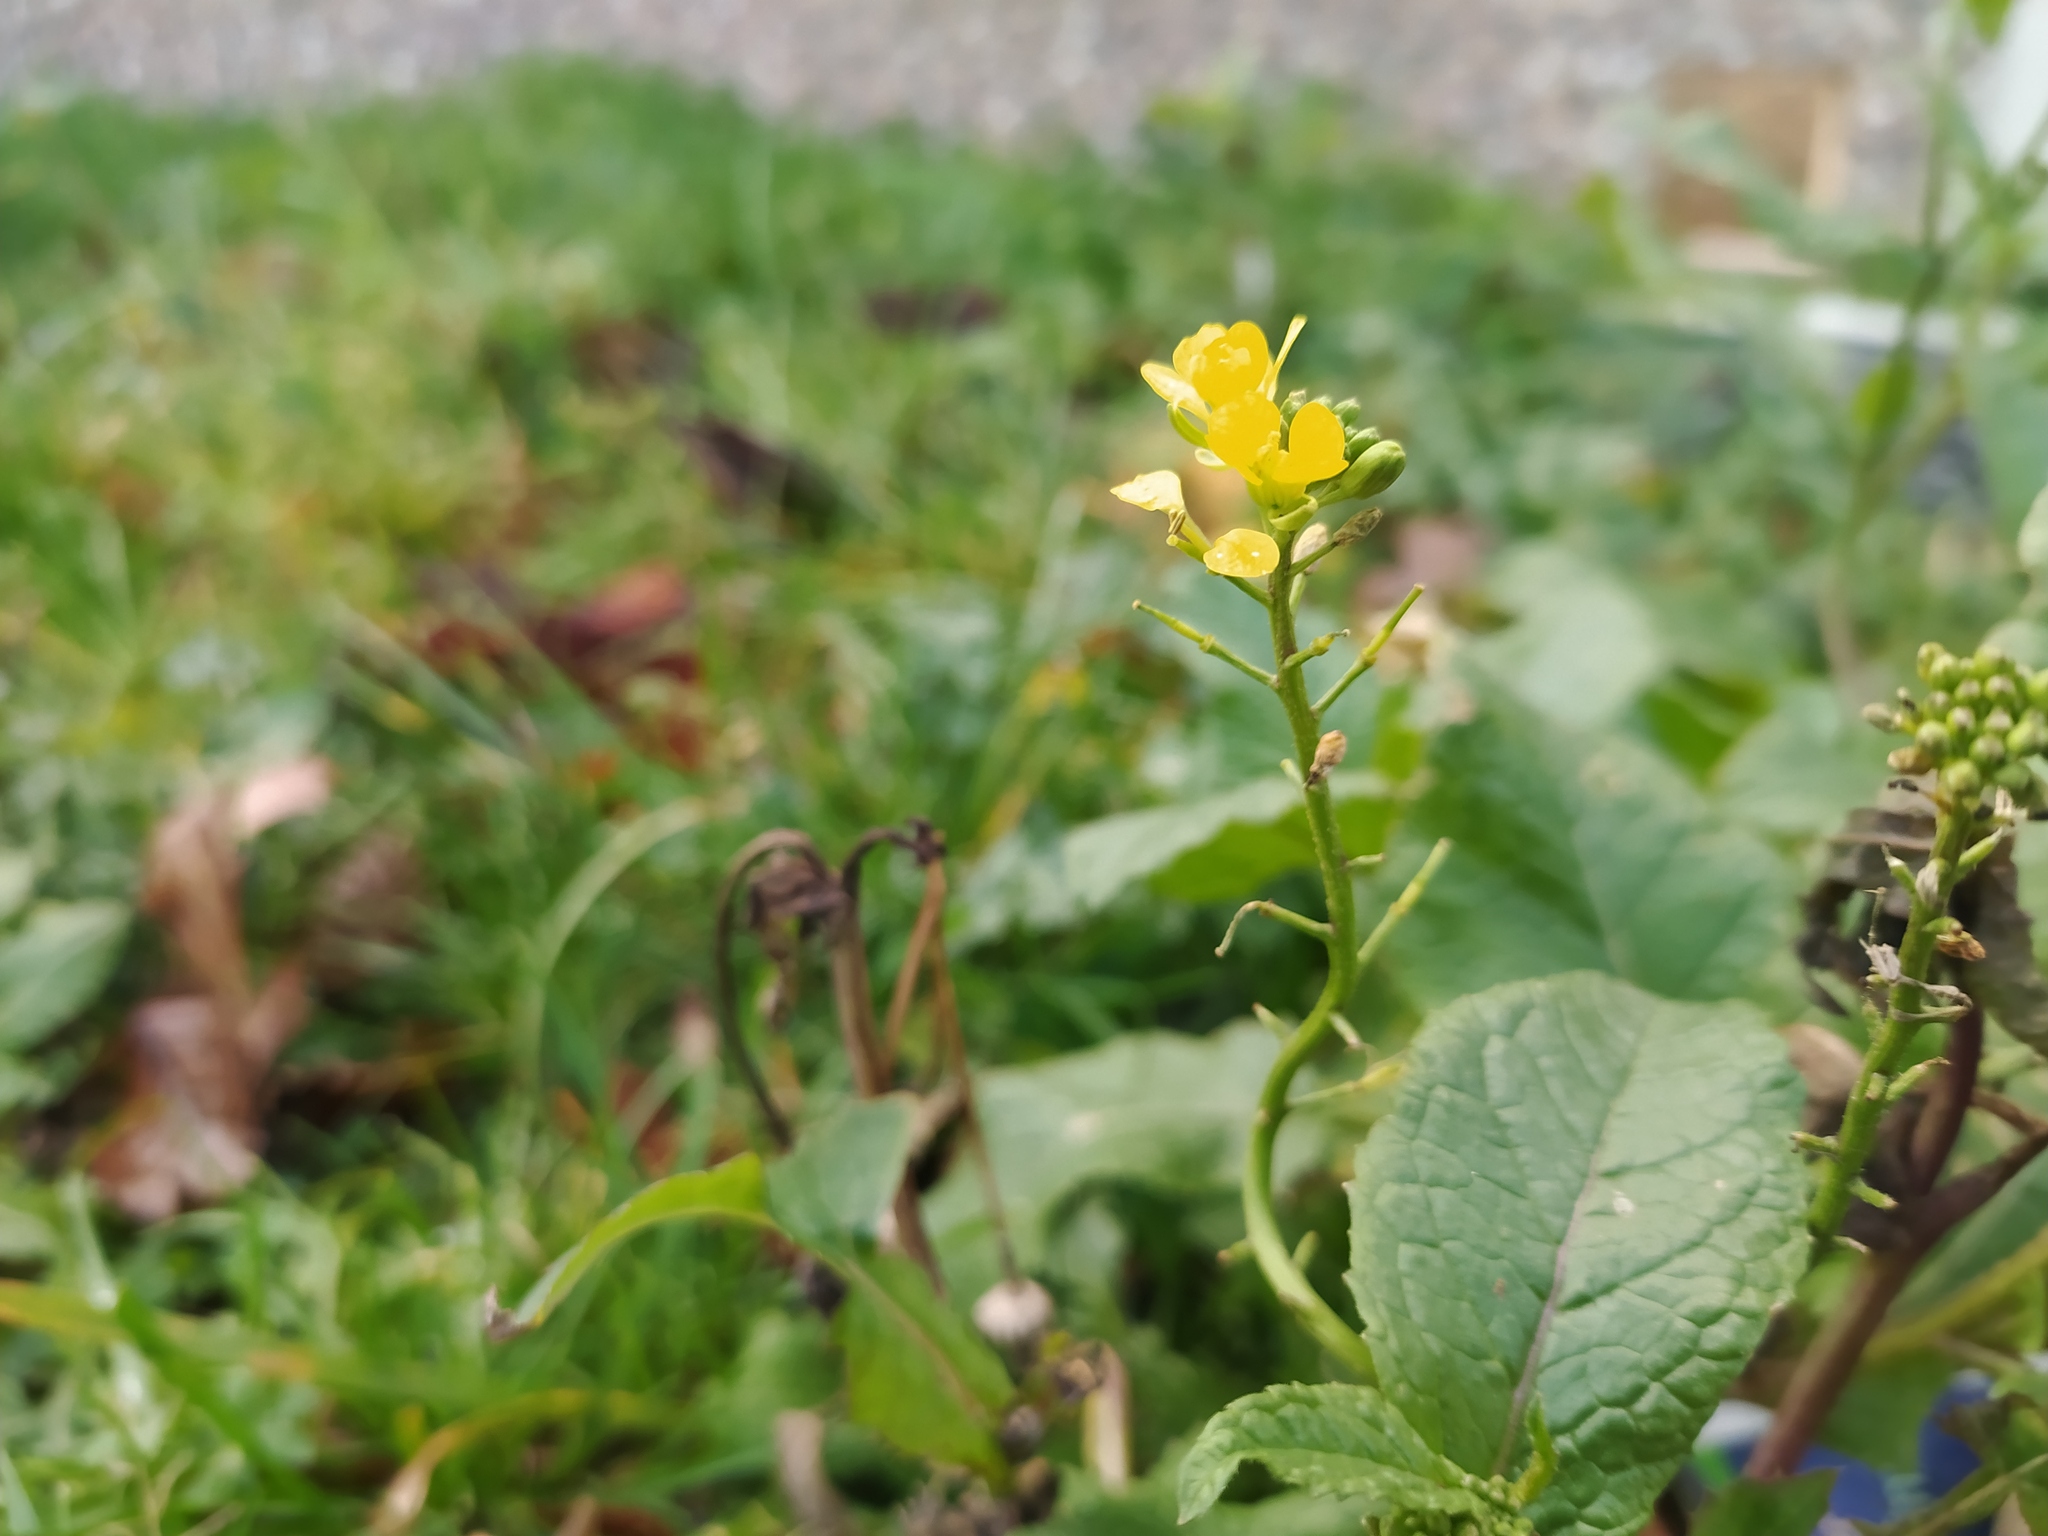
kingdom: Plantae
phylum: Tracheophyta
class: Magnoliopsida
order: Brassicales
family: Brassicaceae
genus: Sinapis
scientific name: Sinapis arvensis
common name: Charlock
